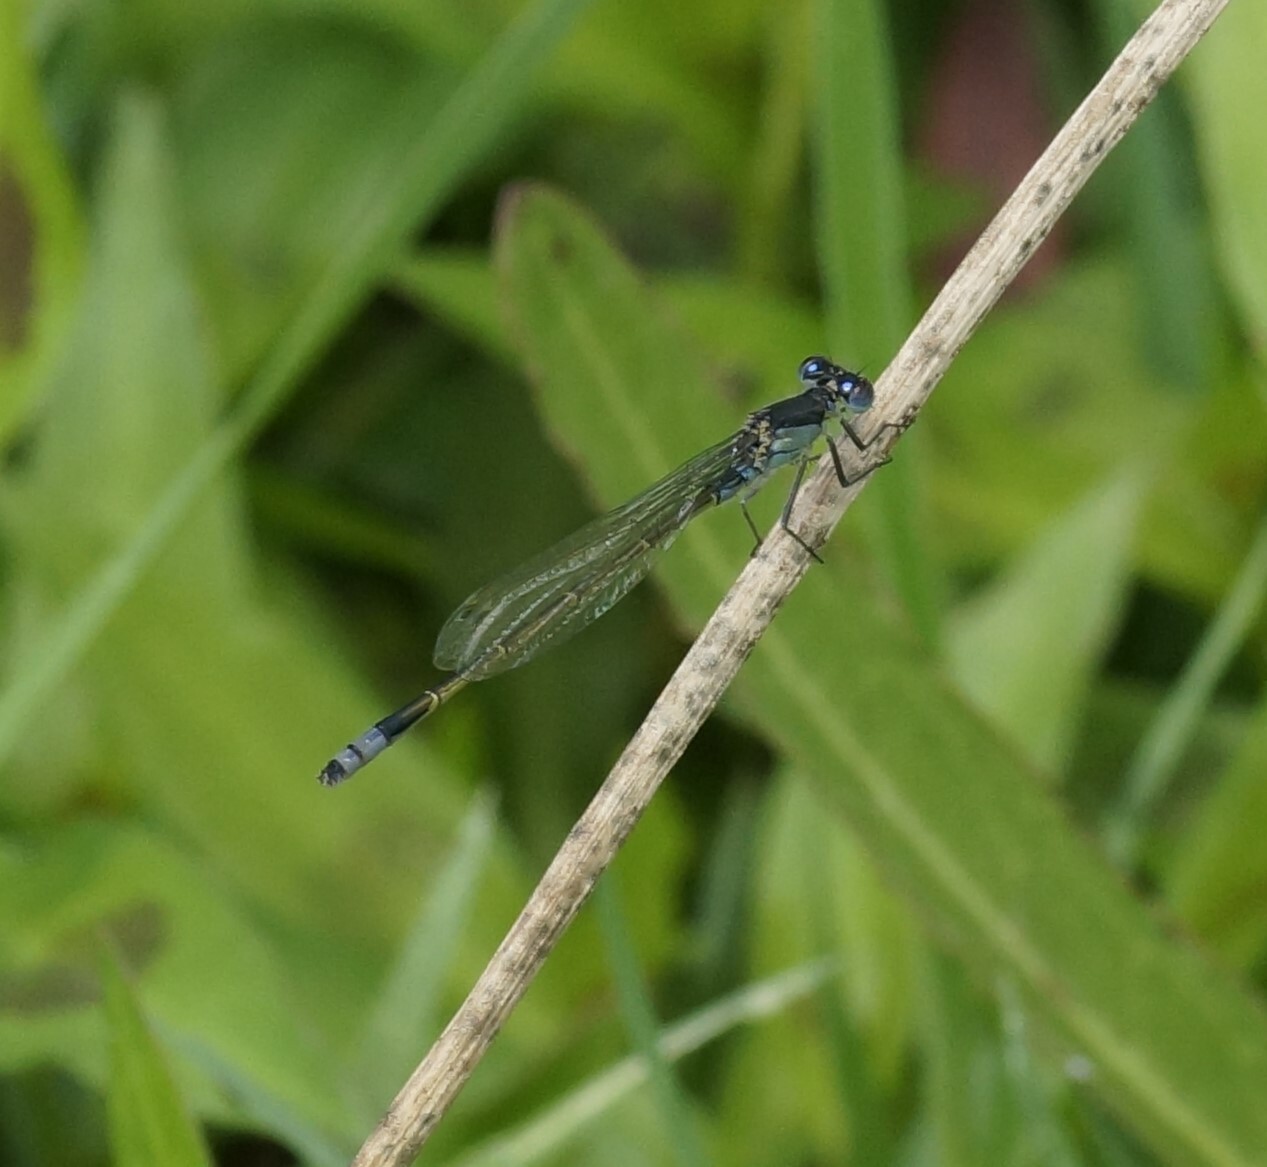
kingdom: Animalia
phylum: Arthropoda
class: Insecta
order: Odonata
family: Coenagrionidae
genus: Ischnura
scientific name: Ischnura heterosticta
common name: Common bluetail
